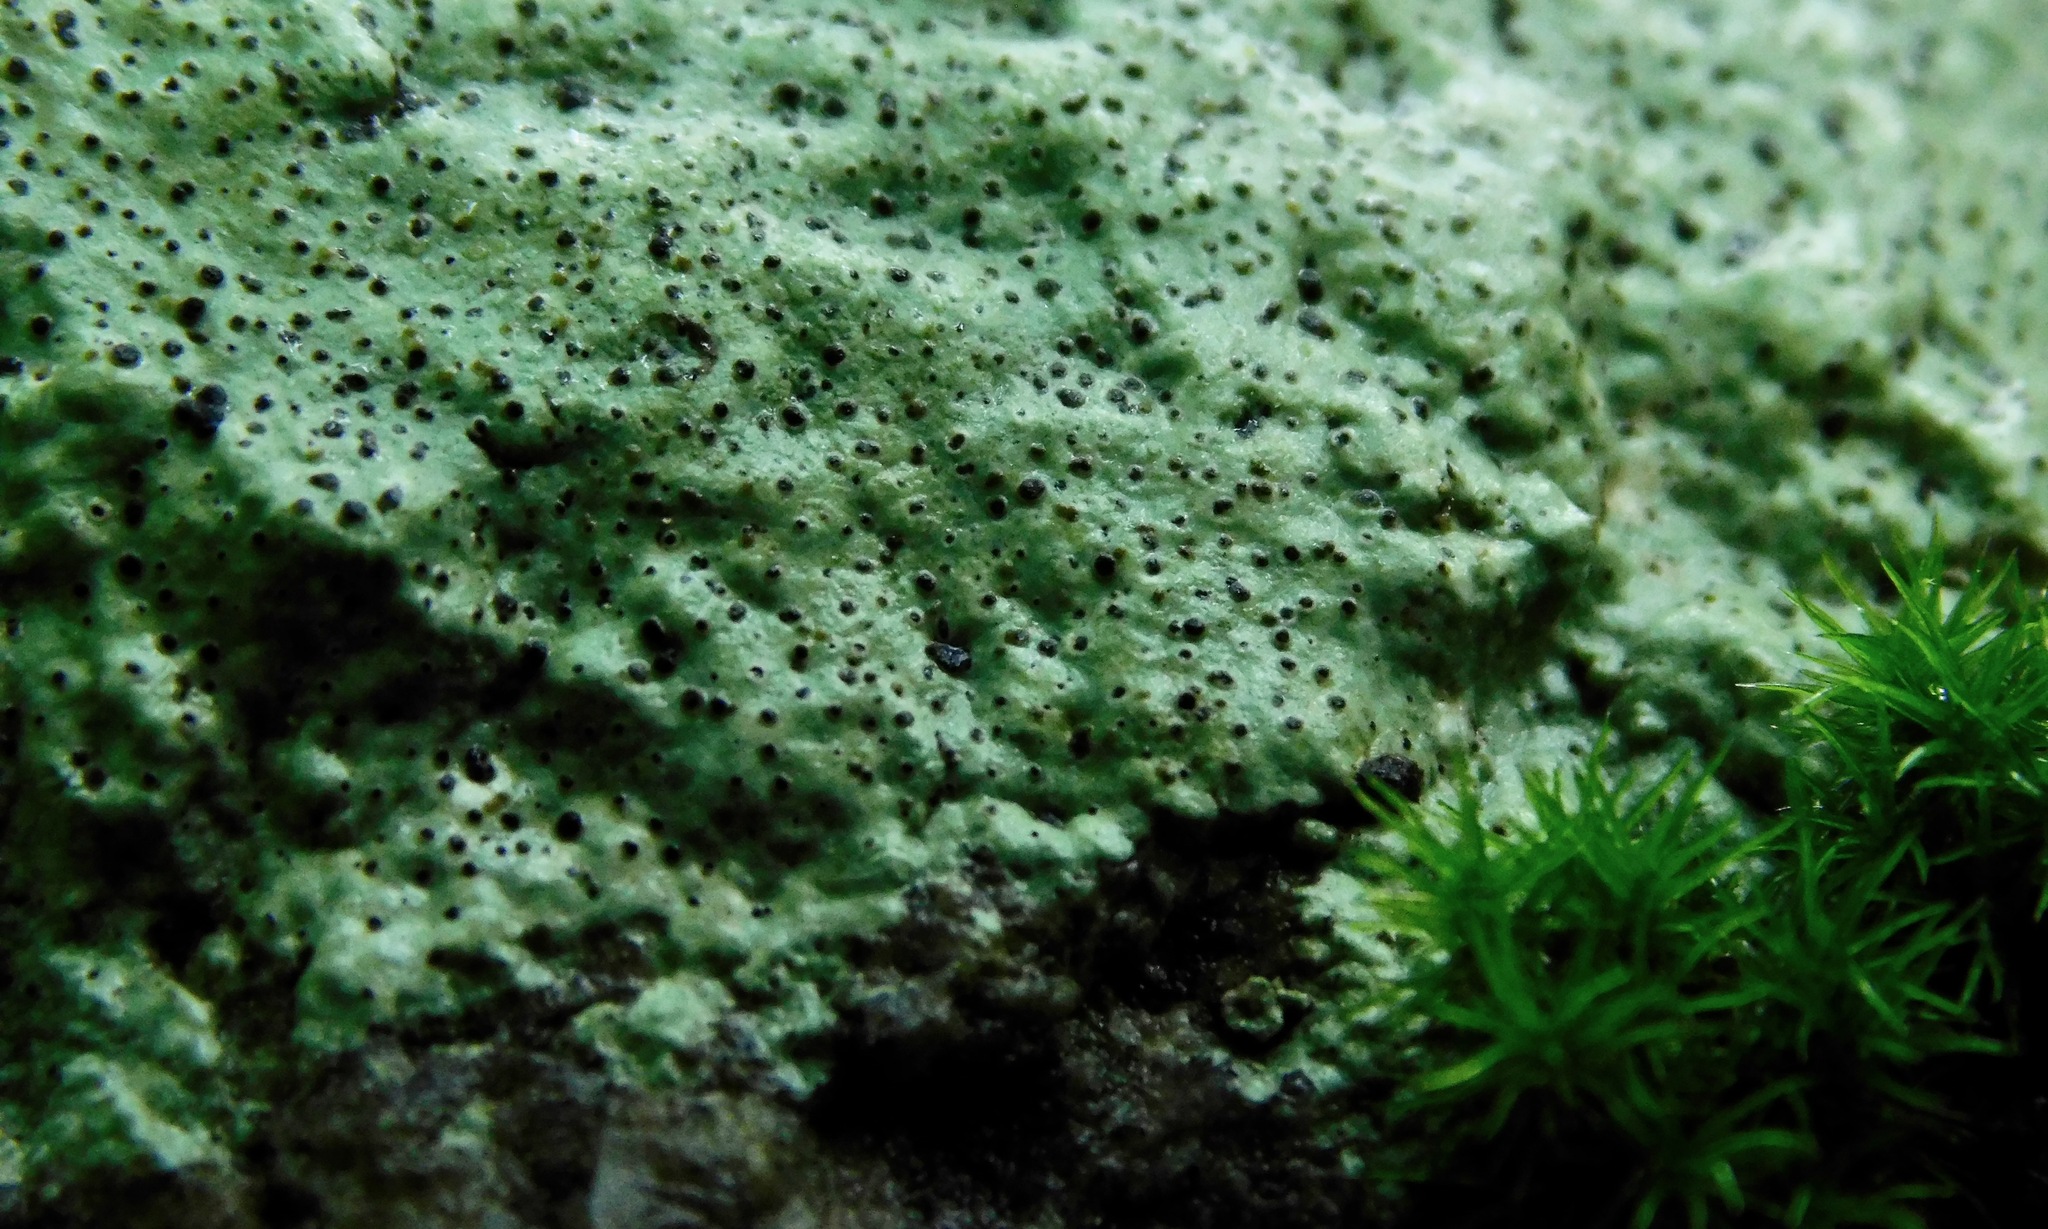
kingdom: Fungi
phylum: Ascomycota
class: Lecanoromycetes
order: Ostropales
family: Graphidaceae
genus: Diploschistes
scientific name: Diploschistes actinostomus
